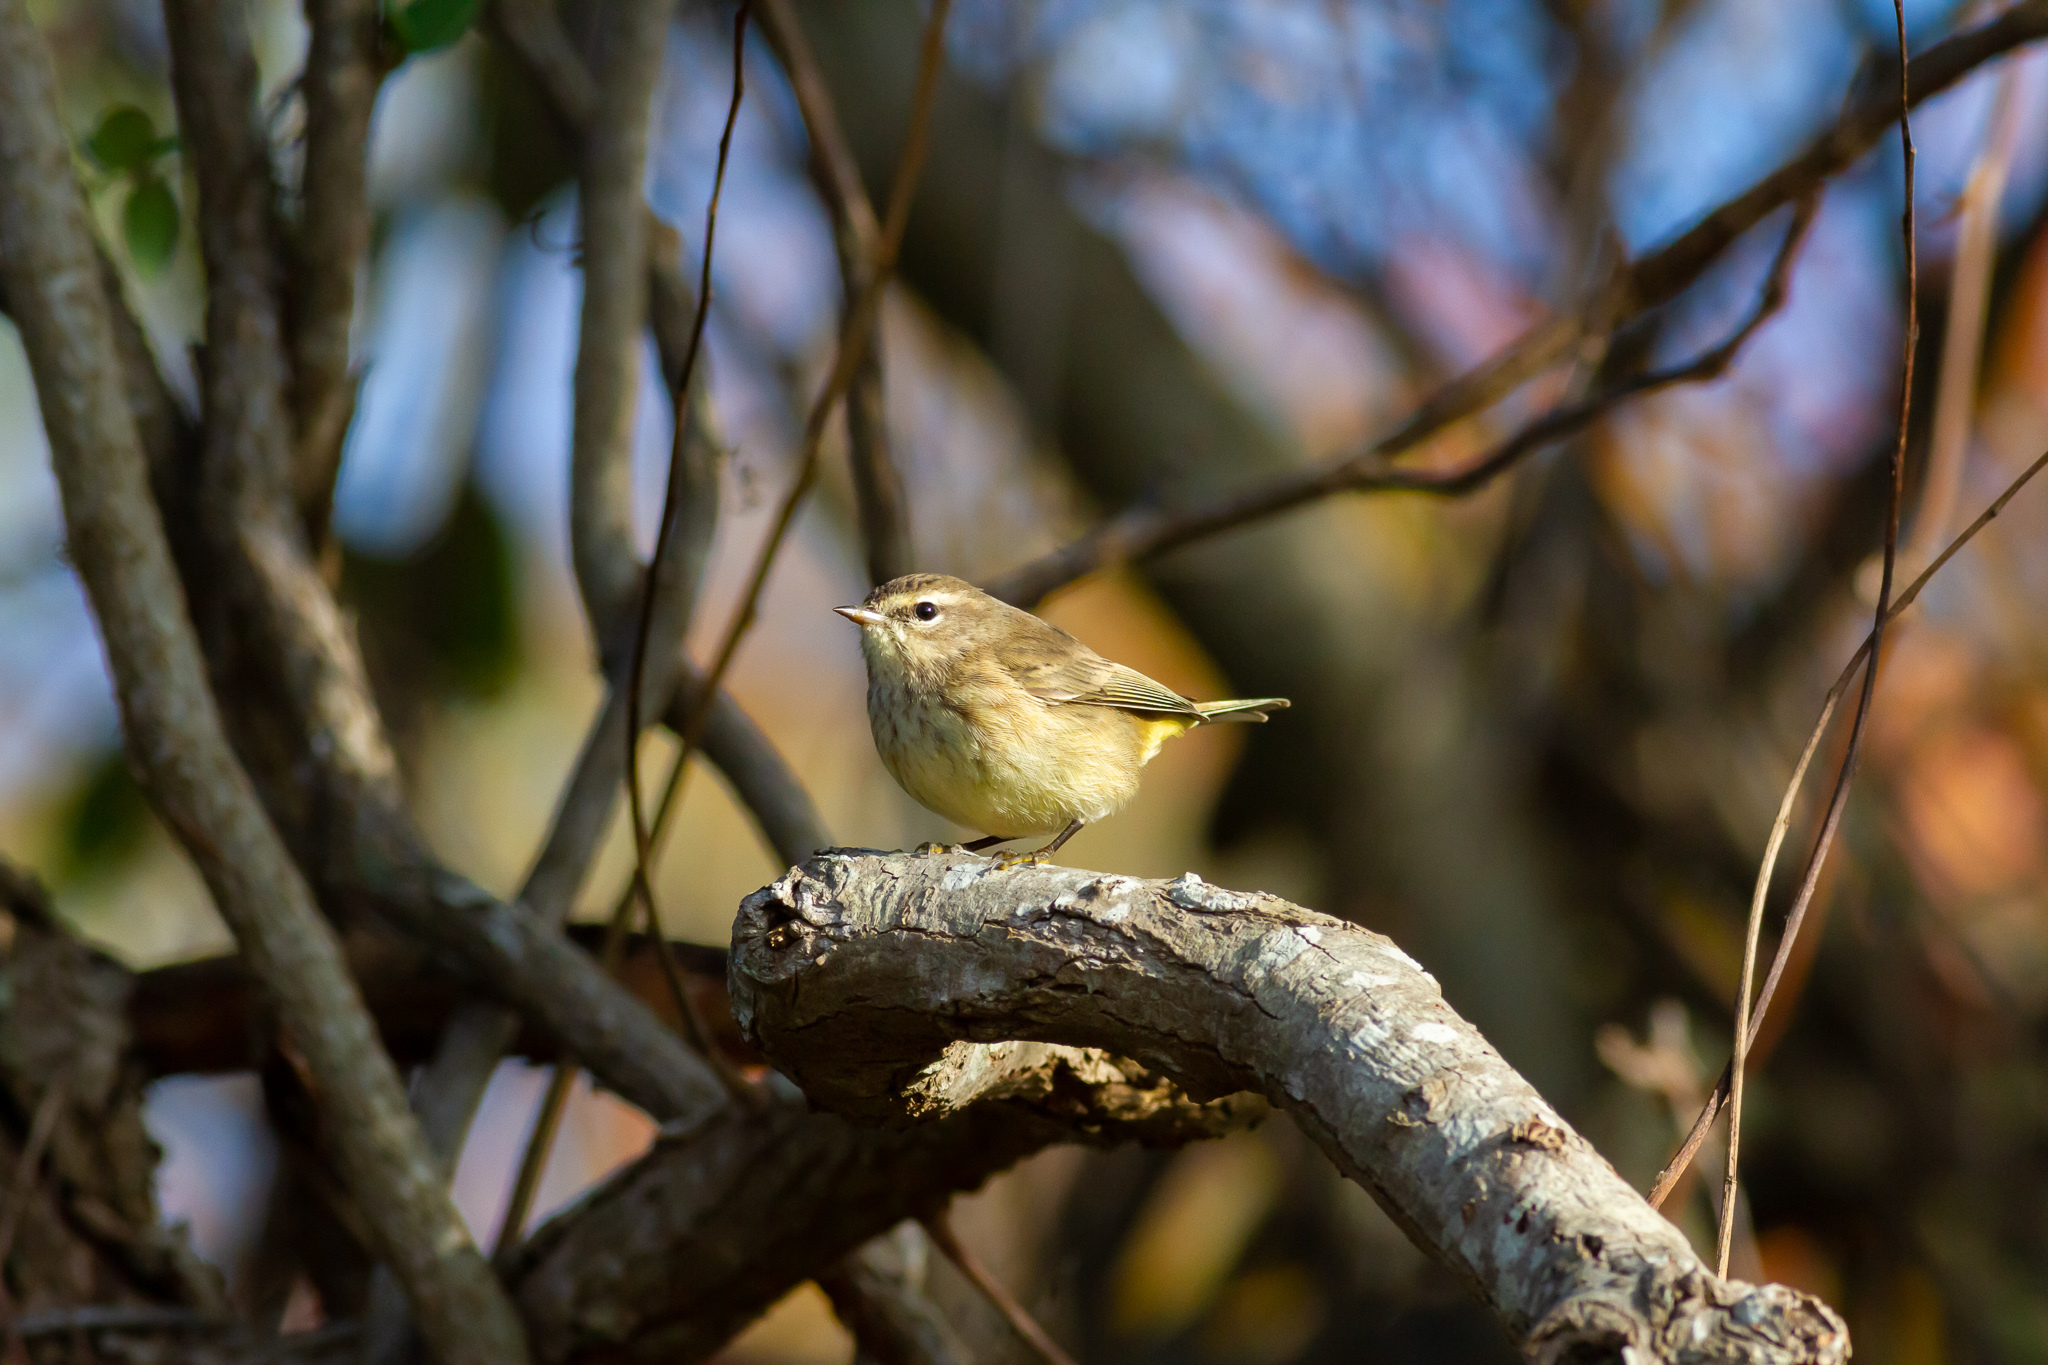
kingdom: Animalia
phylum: Chordata
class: Aves
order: Passeriformes
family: Parulidae
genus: Setophaga
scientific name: Setophaga palmarum
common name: Palm warbler
